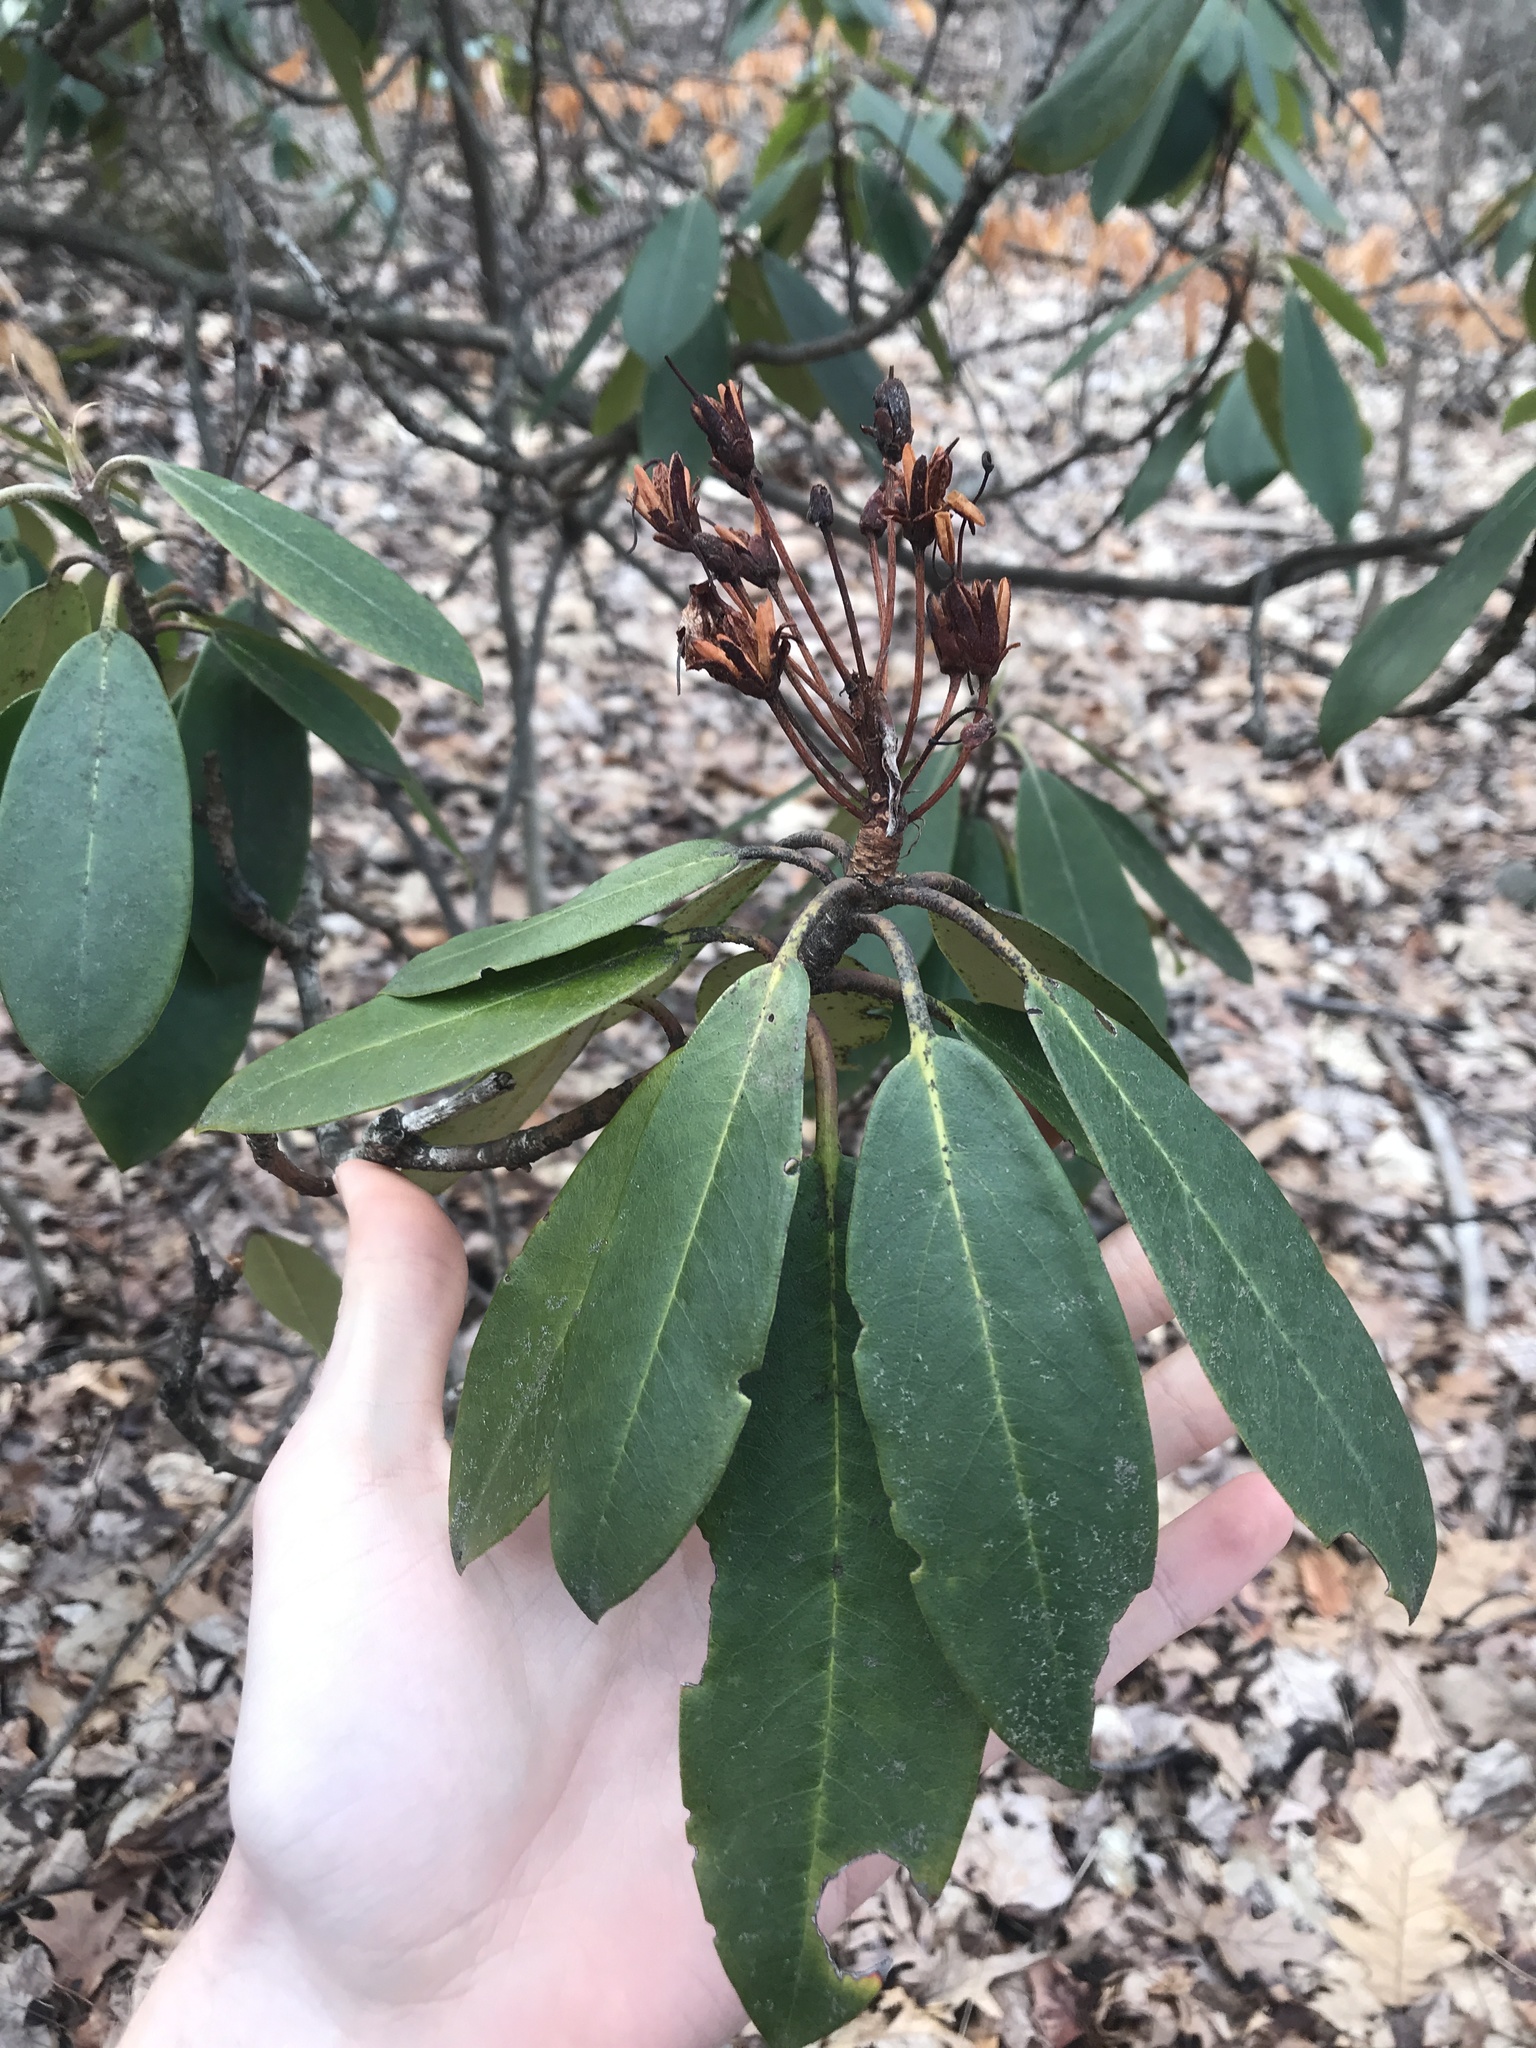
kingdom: Plantae
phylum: Tracheophyta
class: Magnoliopsida
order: Ericales
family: Ericaceae
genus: Rhododendron
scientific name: Rhododendron maximum
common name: Great rhododendron
